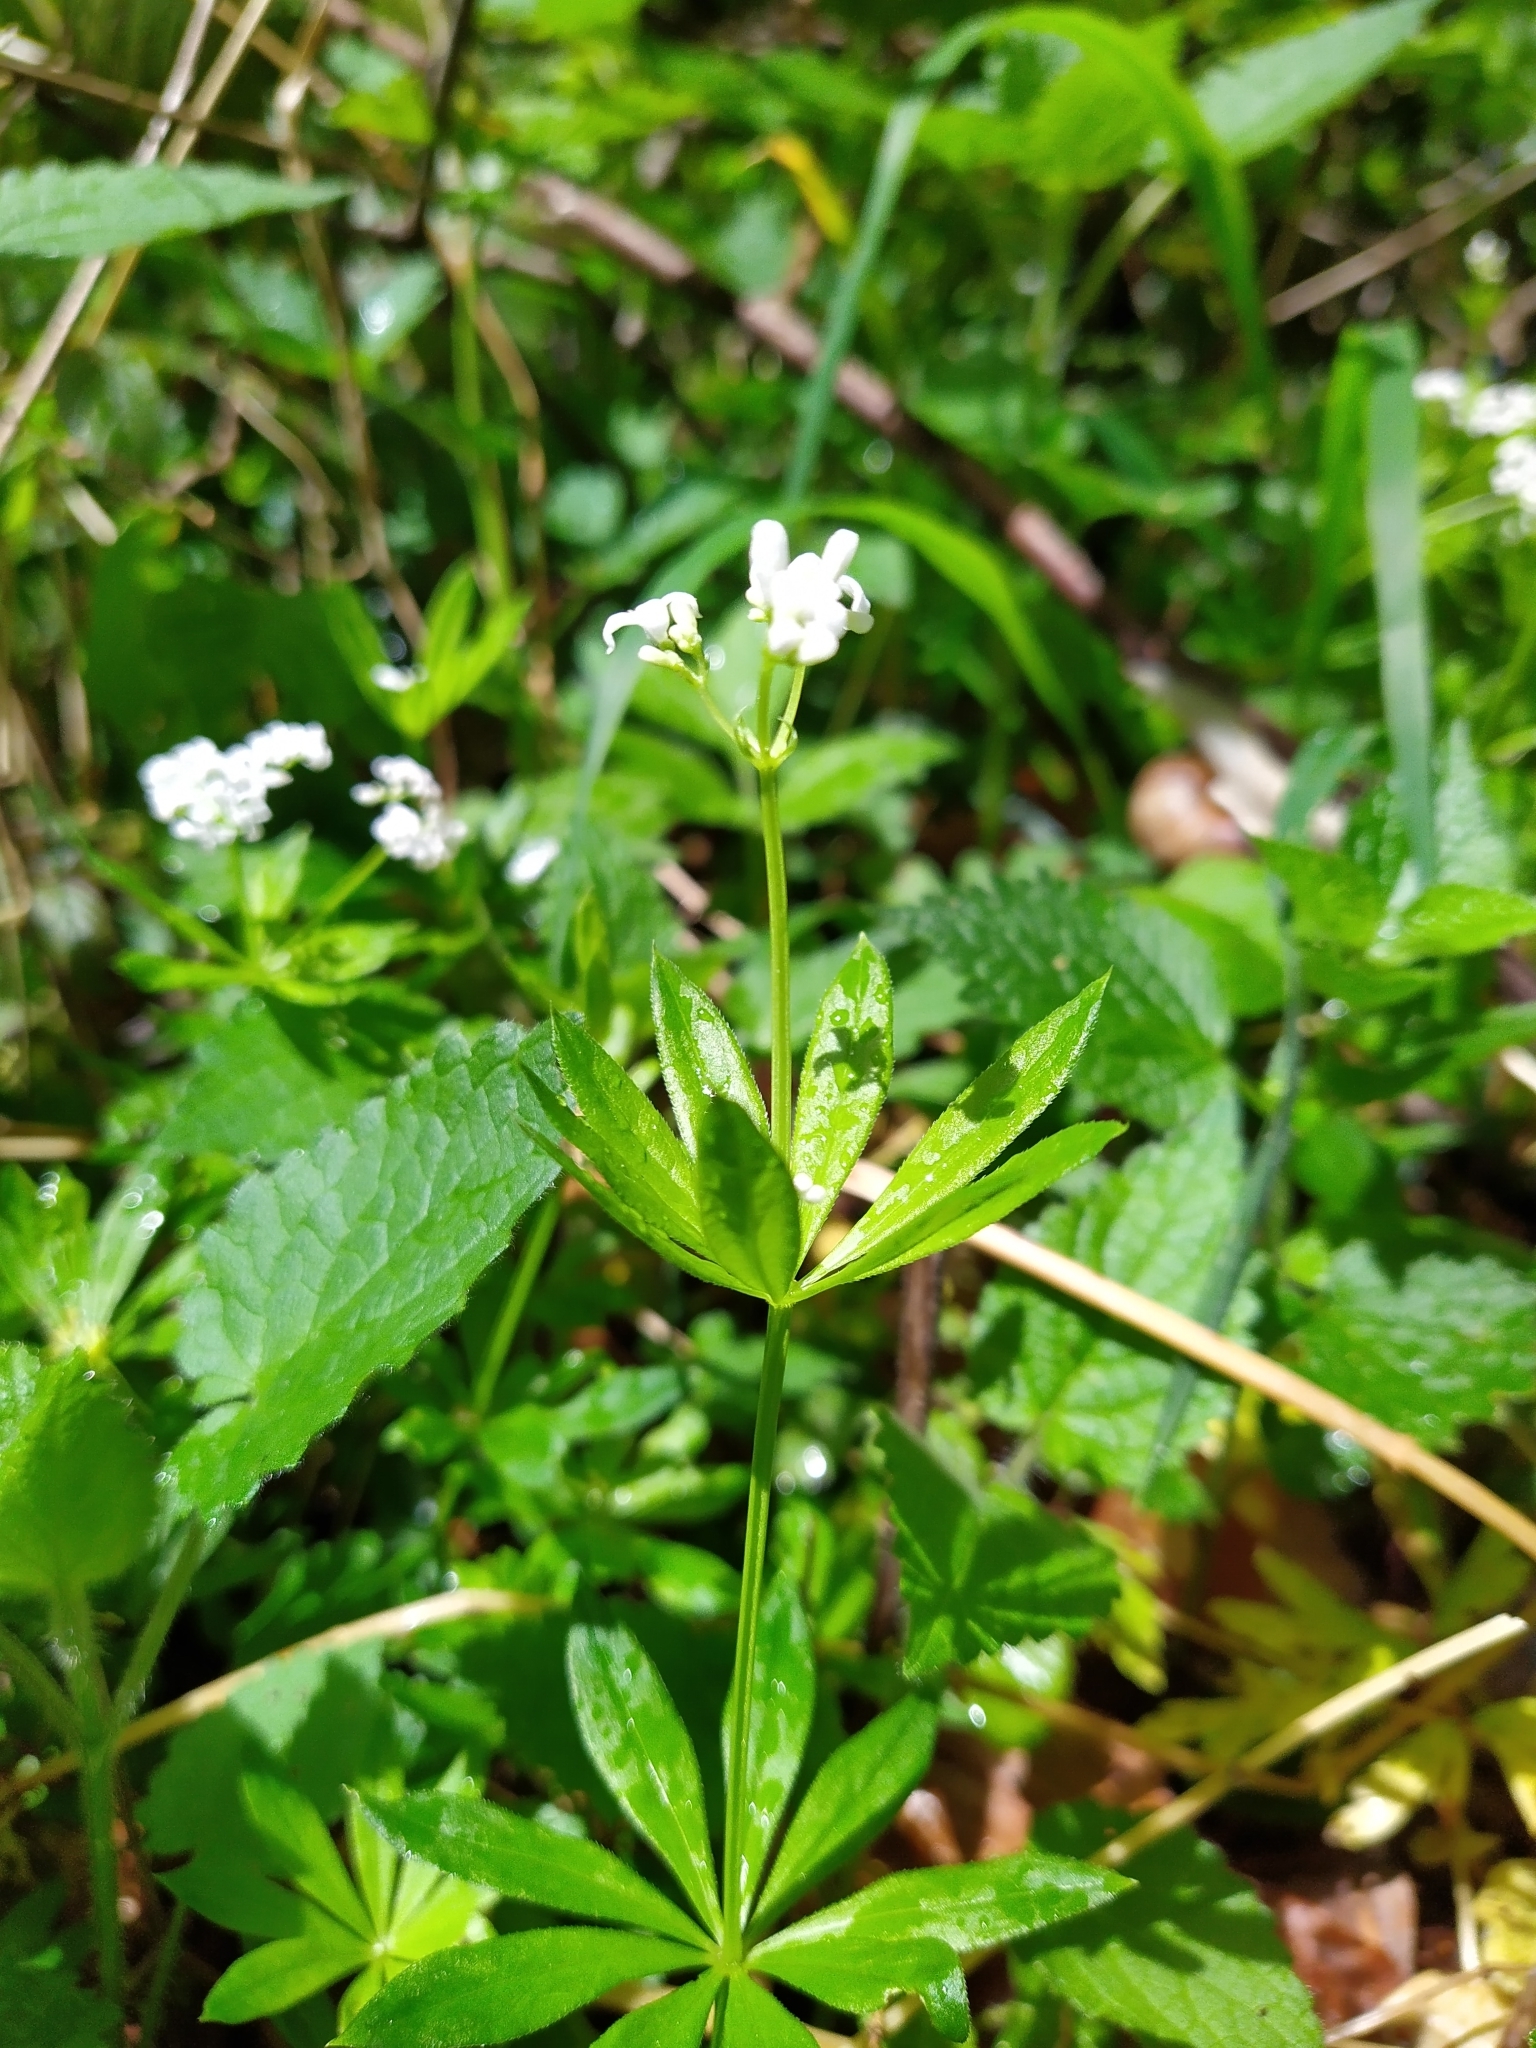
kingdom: Plantae
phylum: Tracheophyta
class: Magnoliopsida
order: Gentianales
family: Rubiaceae
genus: Galium
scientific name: Galium odoratum
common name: Sweet woodruff
